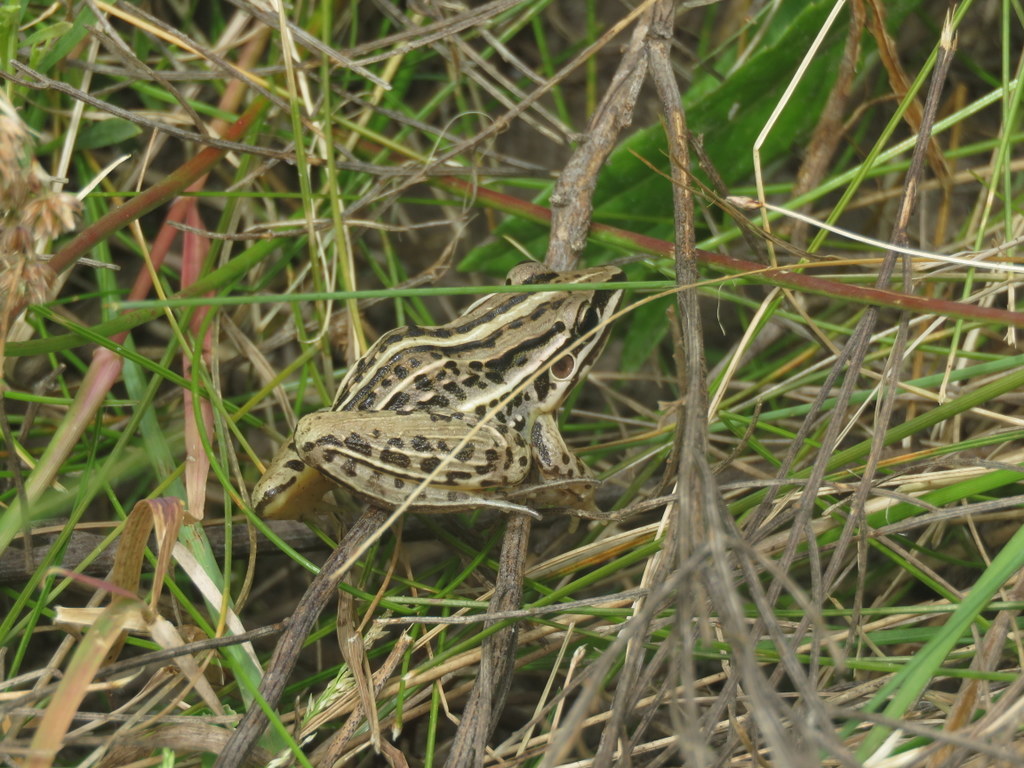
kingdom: Animalia
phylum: Chordata
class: Amphibia
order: Anura
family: Leptodactylidae
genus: Leptodactylus
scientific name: Leptodactylus gracilis
